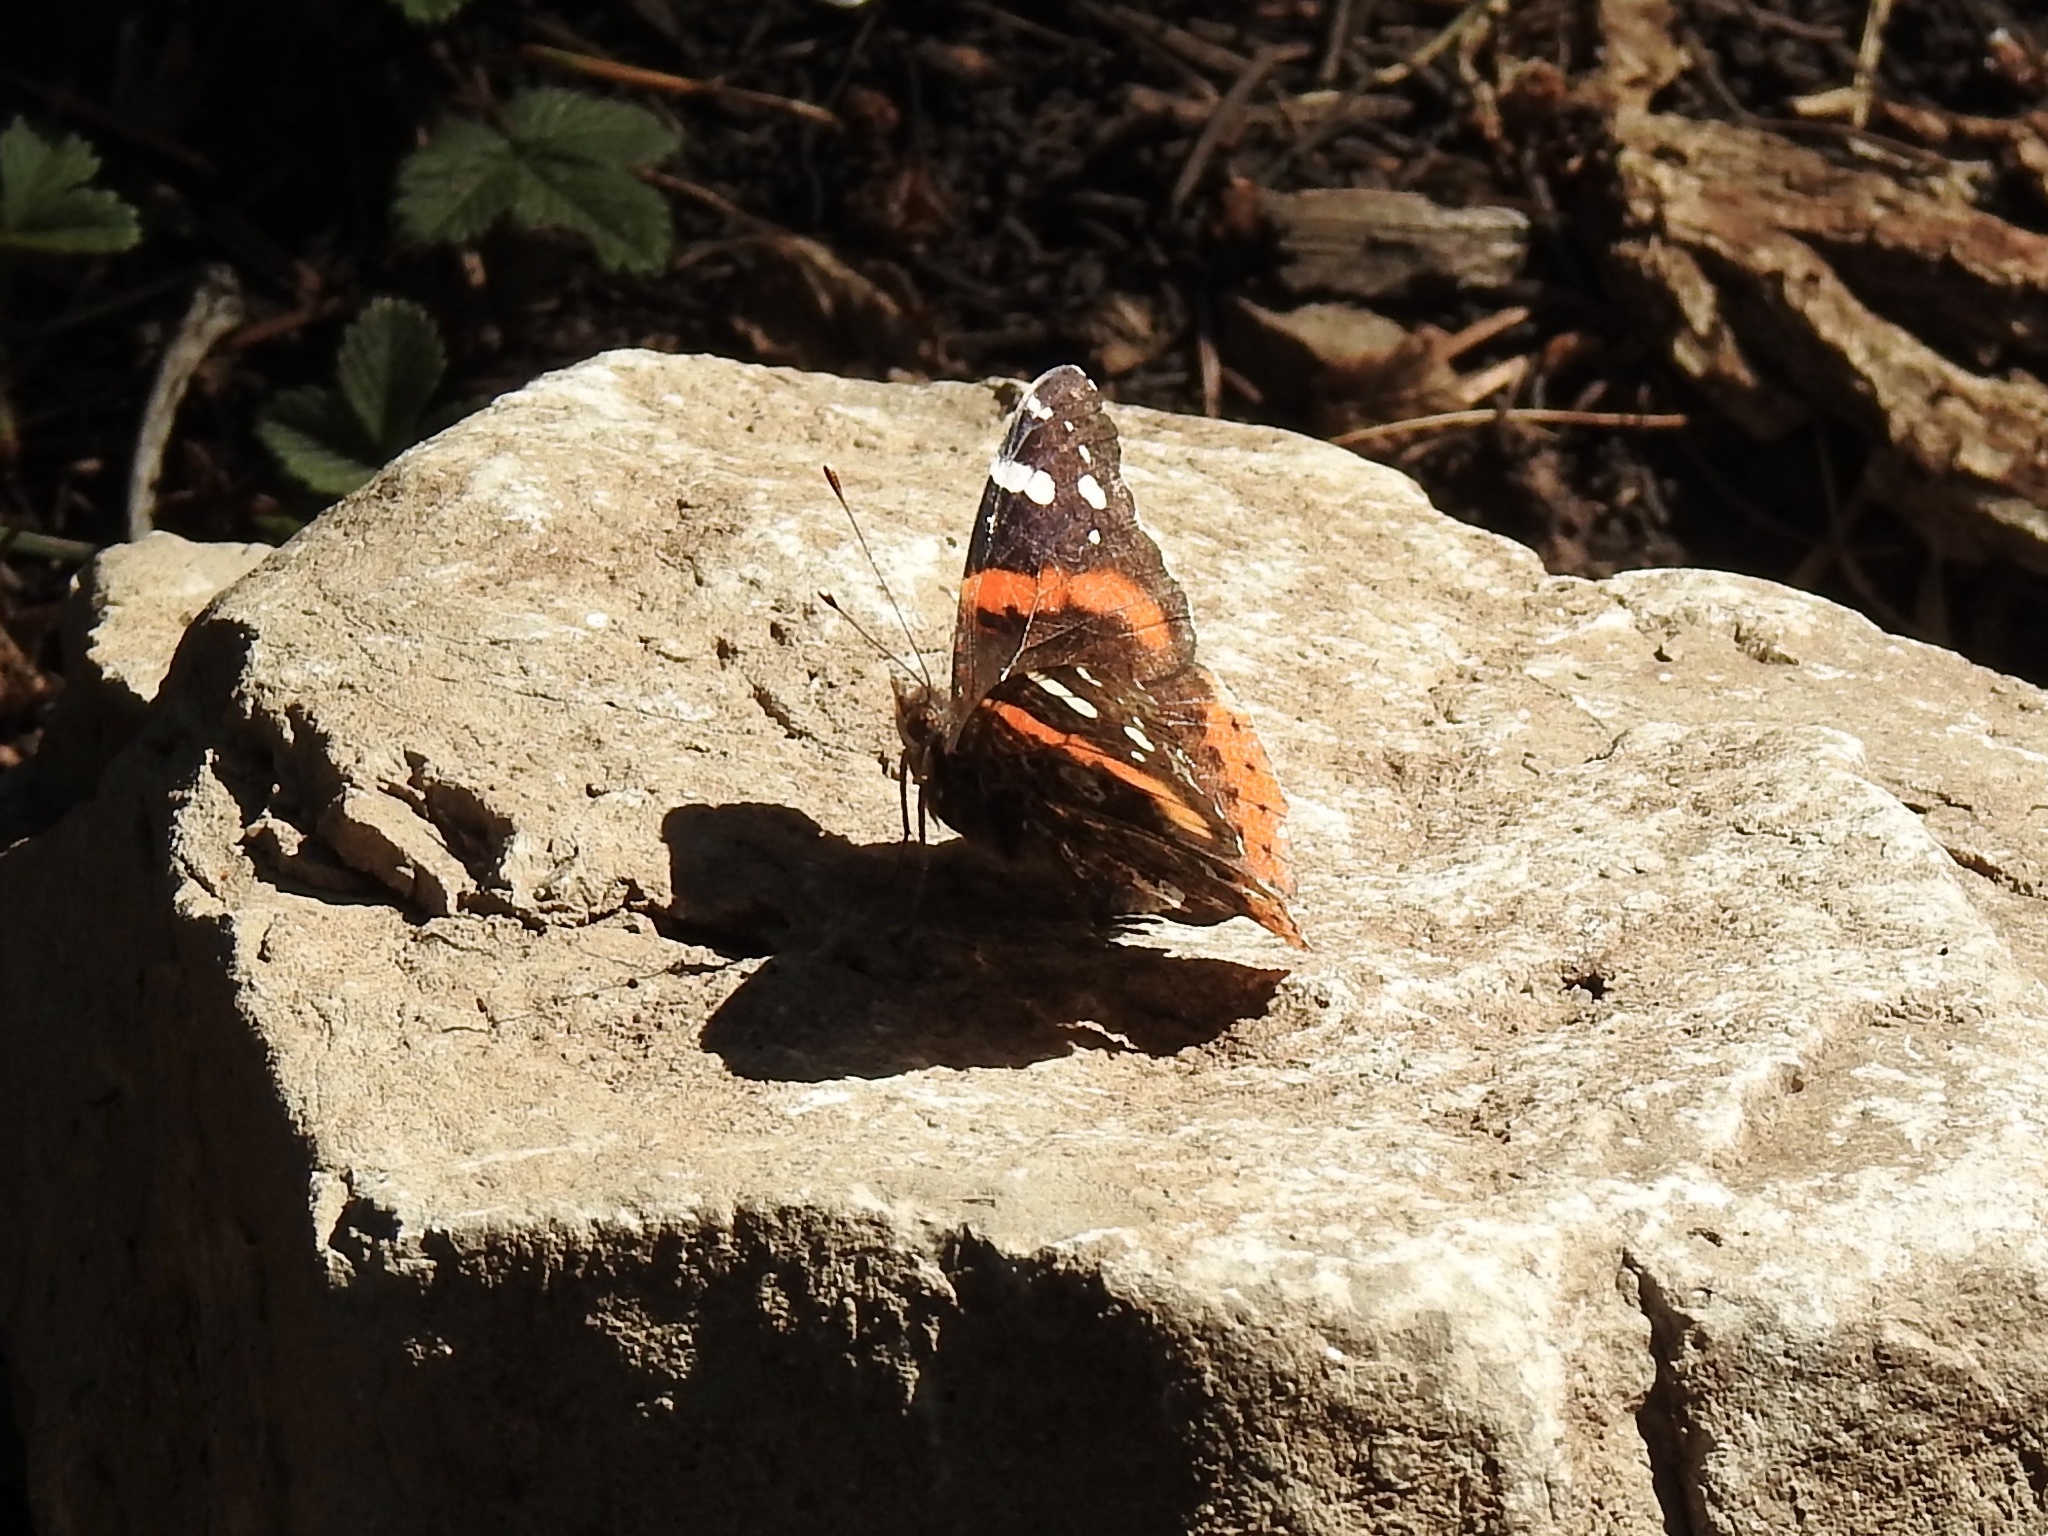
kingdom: Animalia
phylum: Arthropoda
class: Insecta
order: Lepidoptera
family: Nymphalidae
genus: Vanessa
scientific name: Vanessa atalanta
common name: Red admiral
